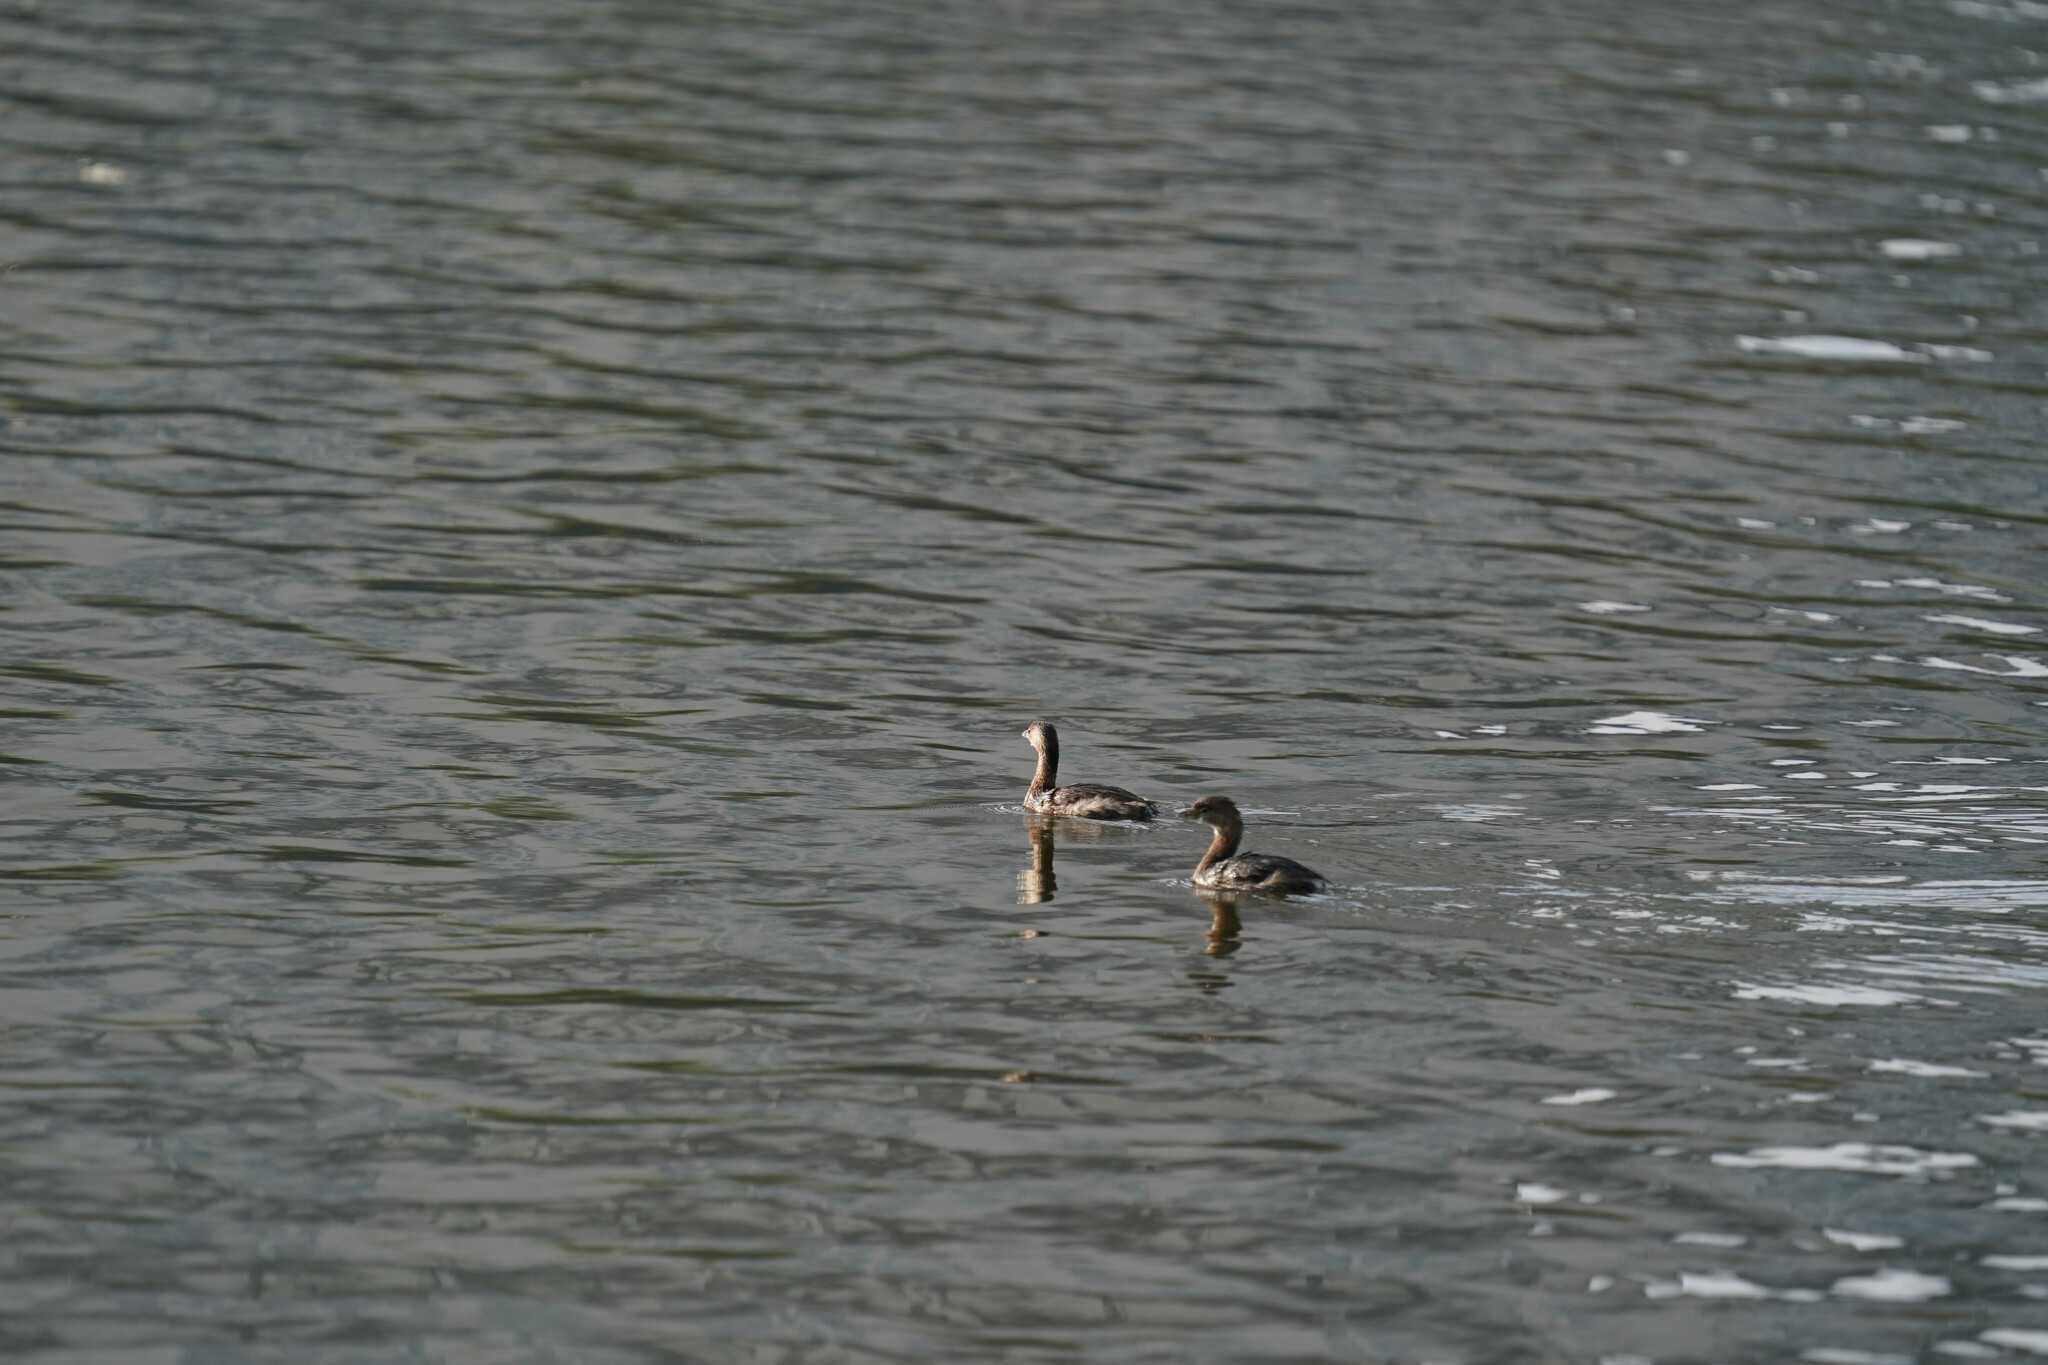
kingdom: Animalia
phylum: Chordata
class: Aves
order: Podicipediformes
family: Podicipedidae
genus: Podilymbus
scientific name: Podilymbus podiceps
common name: Pied-billed grebe
